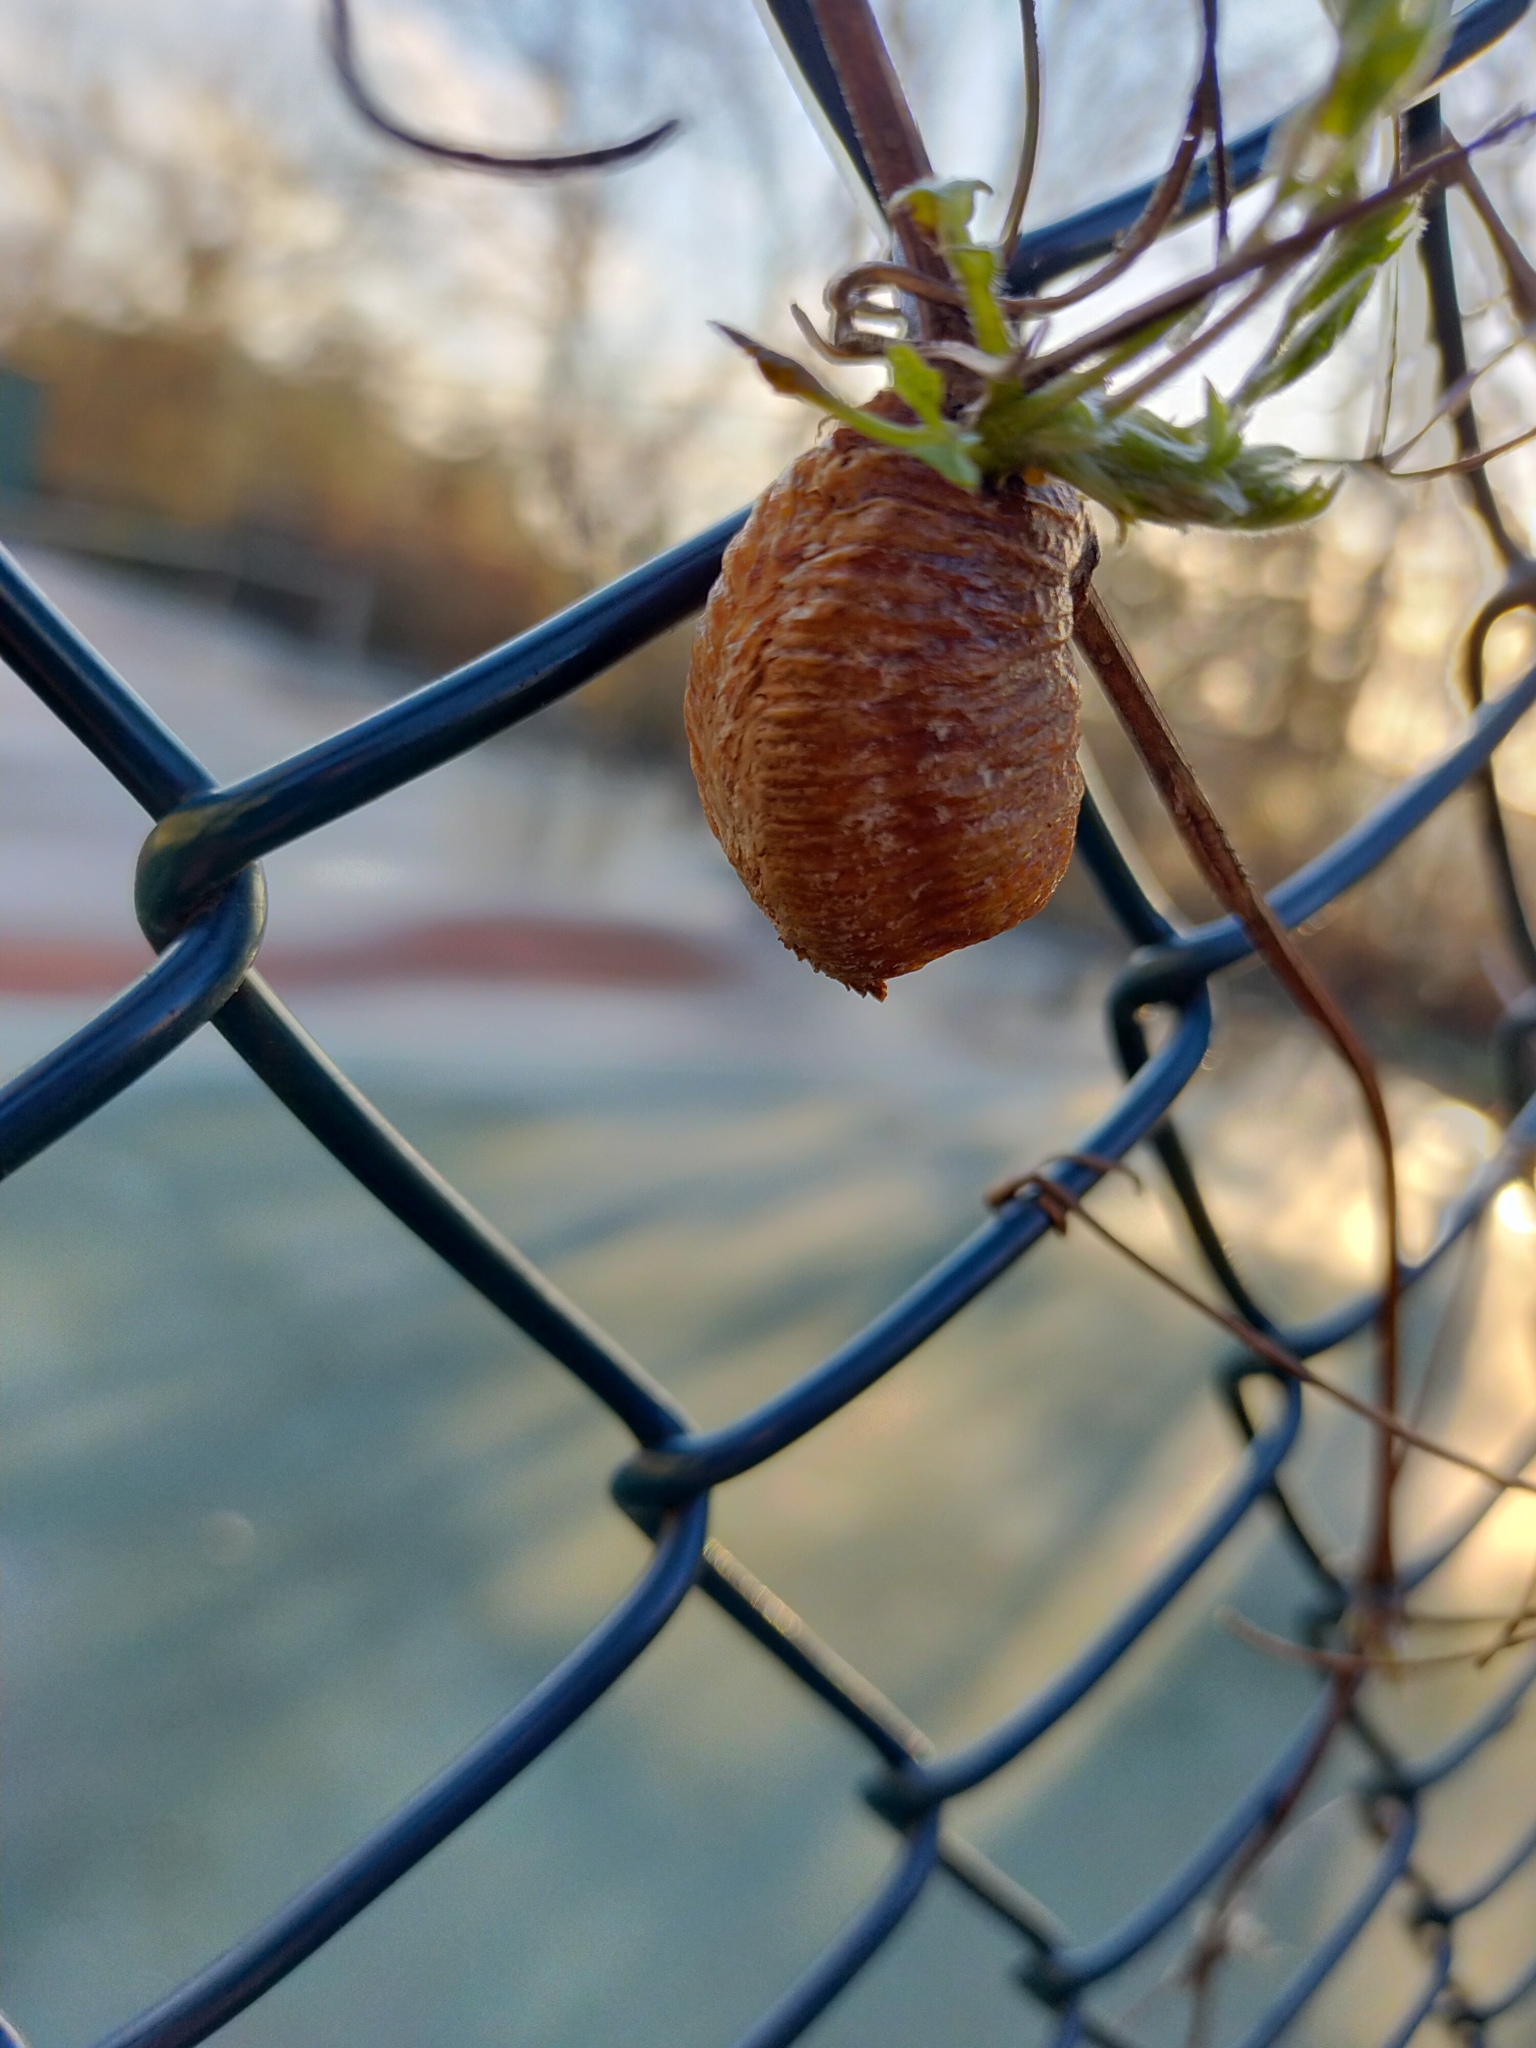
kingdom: Animalia
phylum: Arthropoda
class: Insecta
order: Mantodea
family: Mantidae
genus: Hierodula
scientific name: Hierodula transcaucasica
